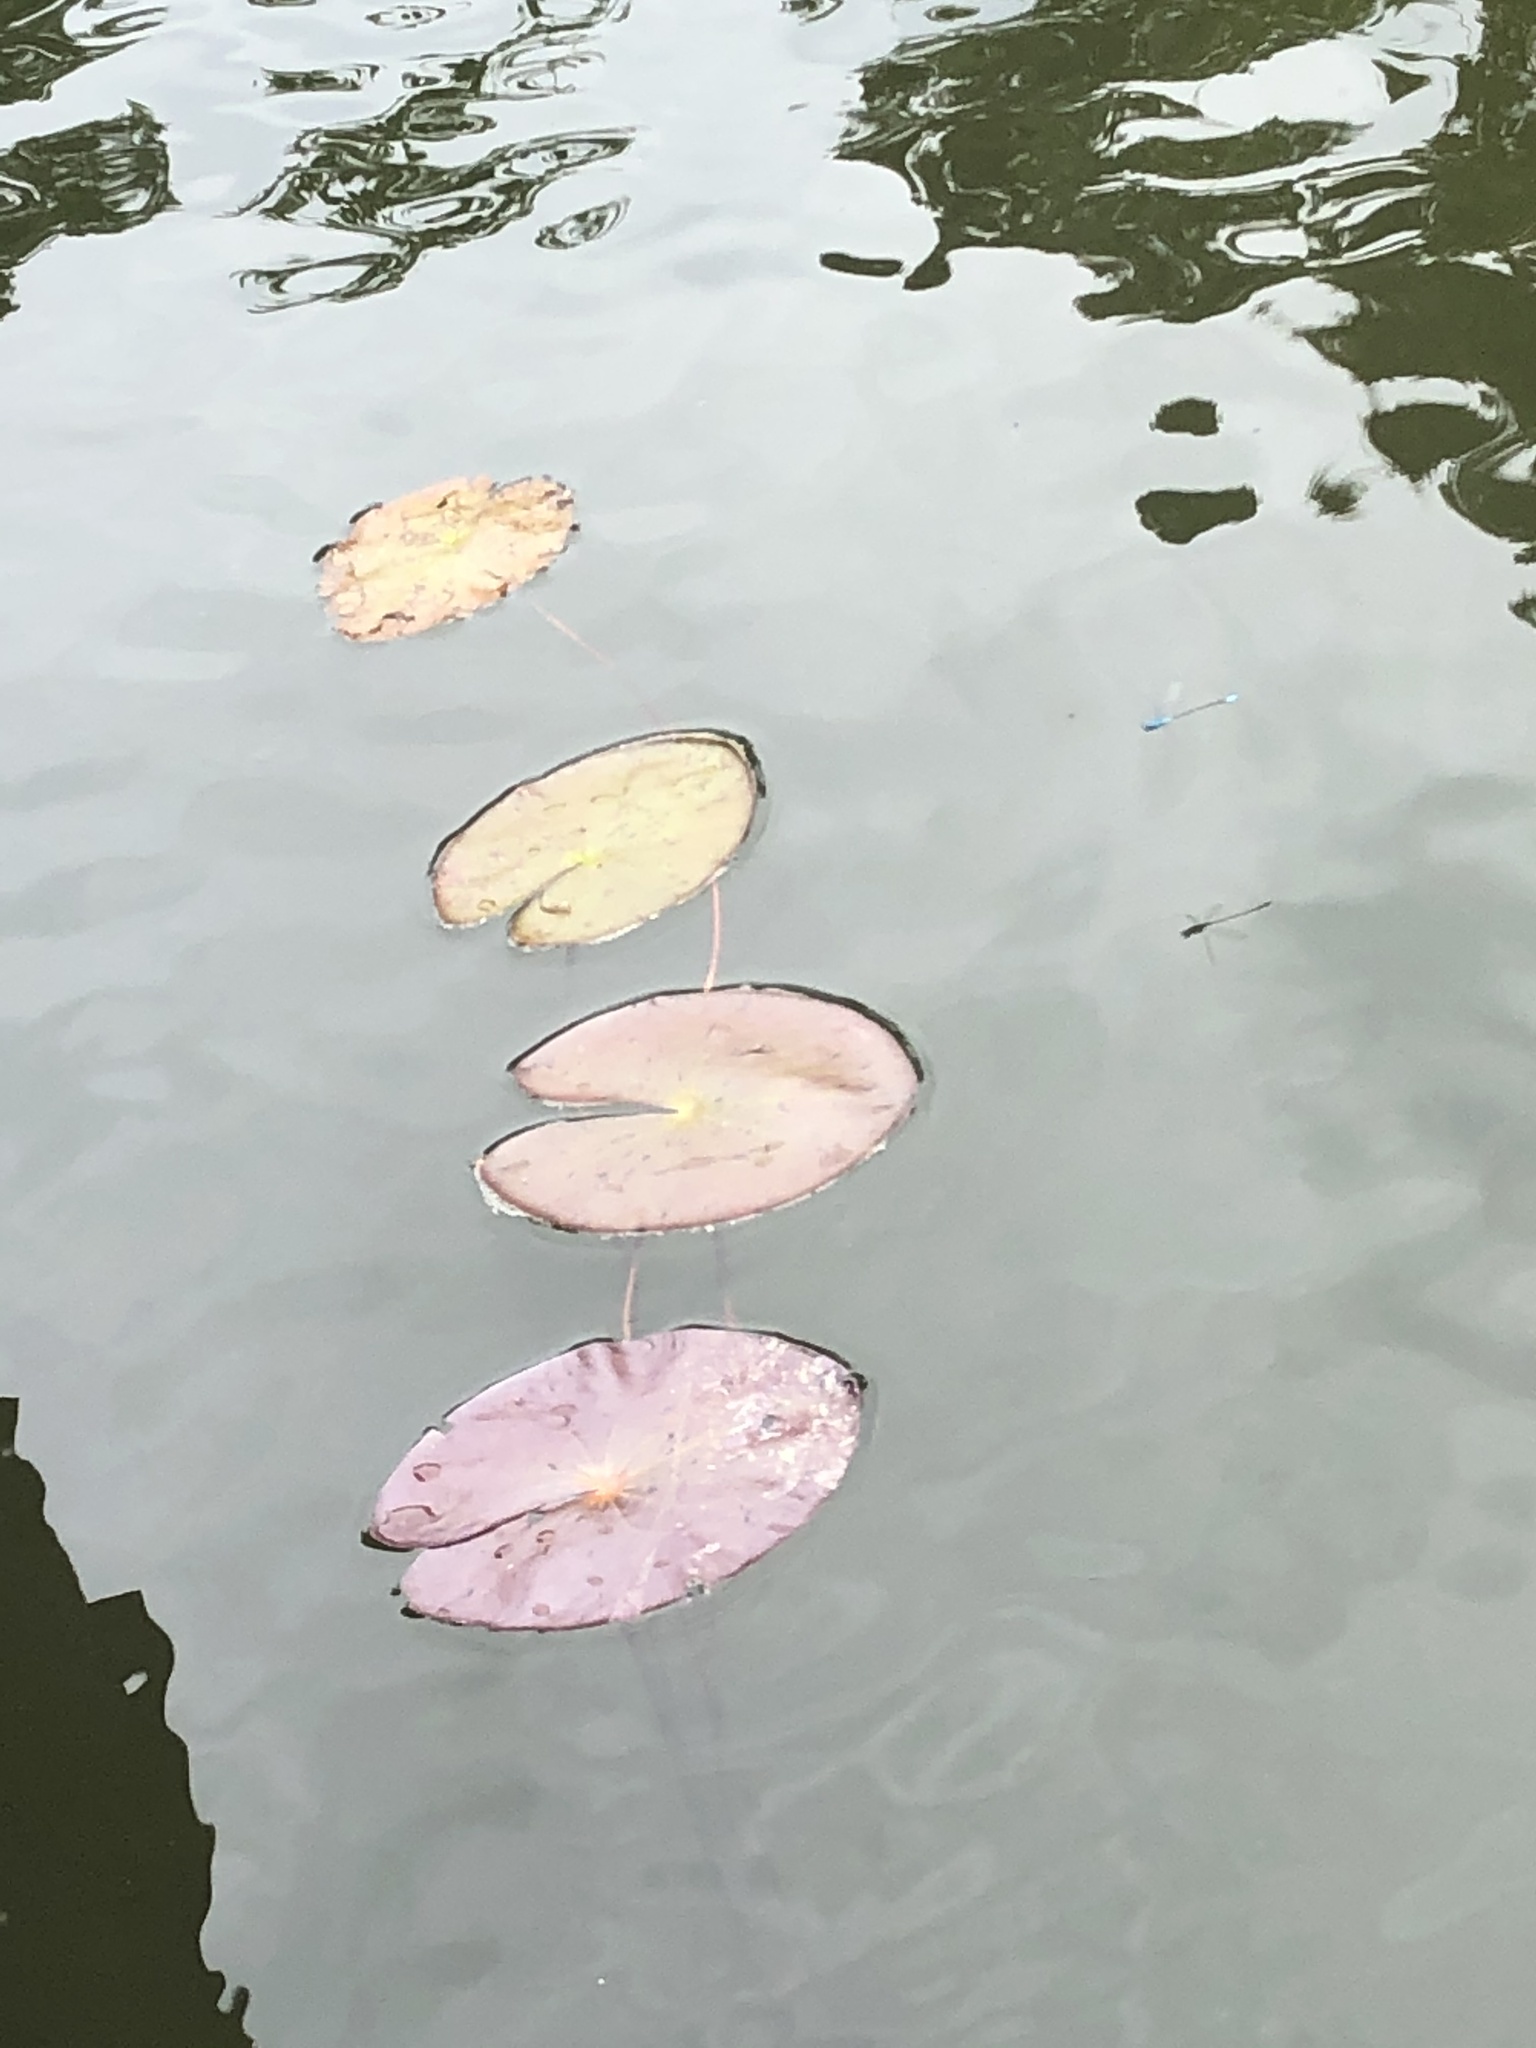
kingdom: Plantae
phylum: Tracheophyta
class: Magnoliopsida
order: Nymphaeales
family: Nymphaeaceae
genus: Nymphaea
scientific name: Nymphaea amazonum
